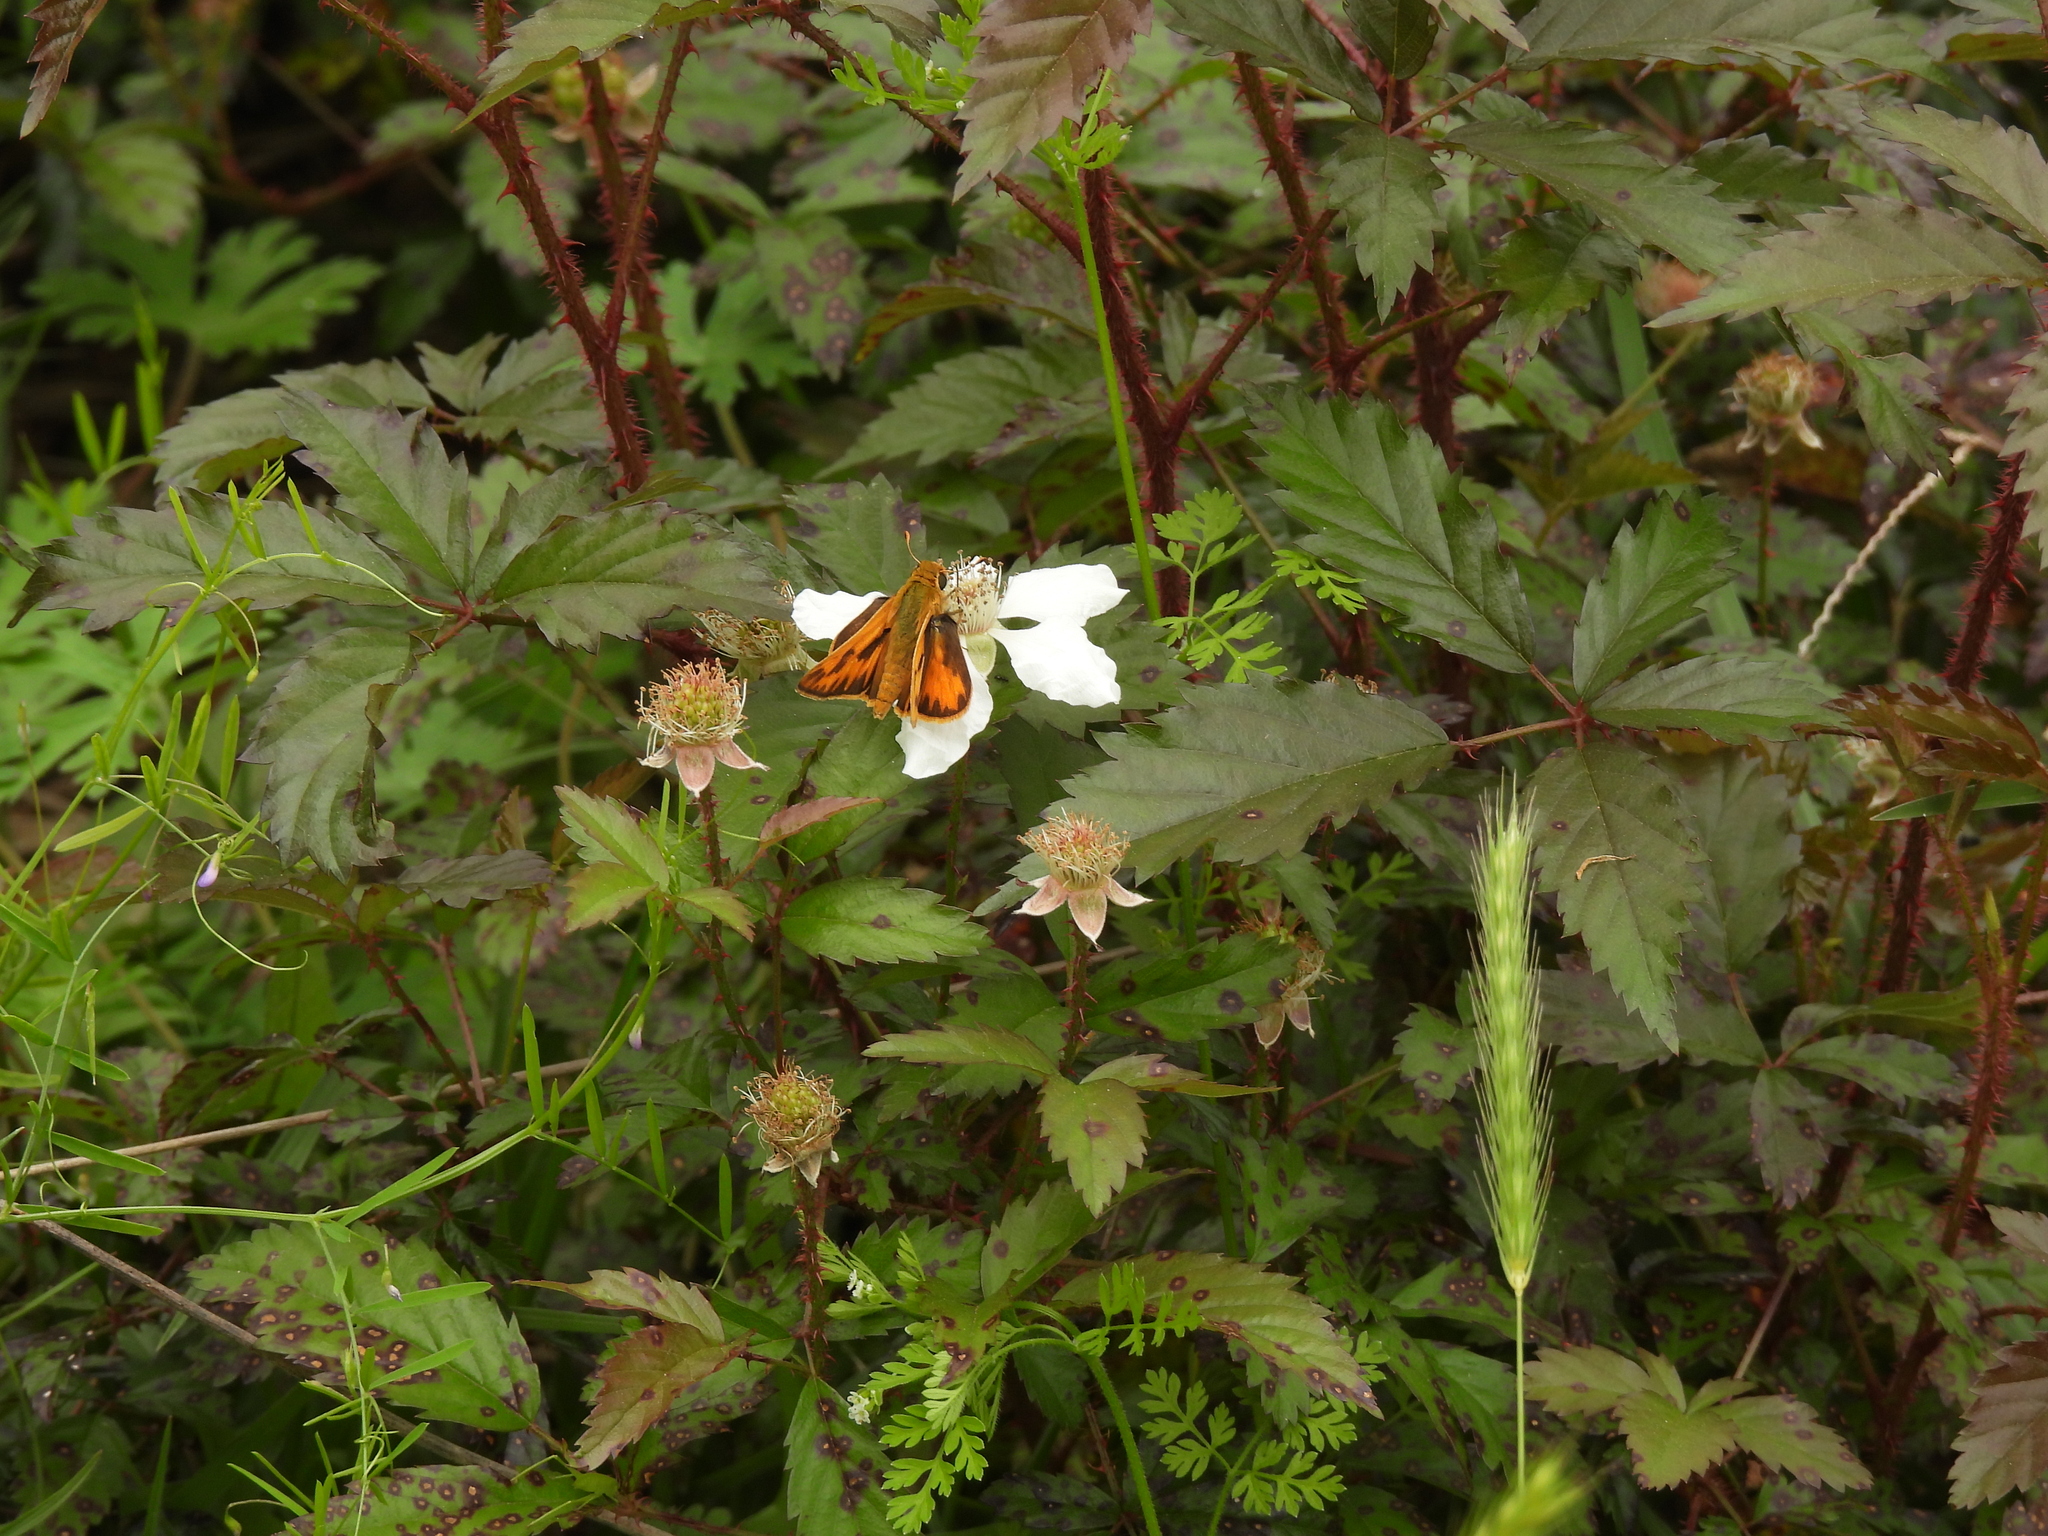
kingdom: Animalia
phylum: Arthropoda
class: Insecta
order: Lepidoptera
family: Hesperiidae
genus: Hylephila
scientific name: Hylephila phyleus
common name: Fiery skipper
